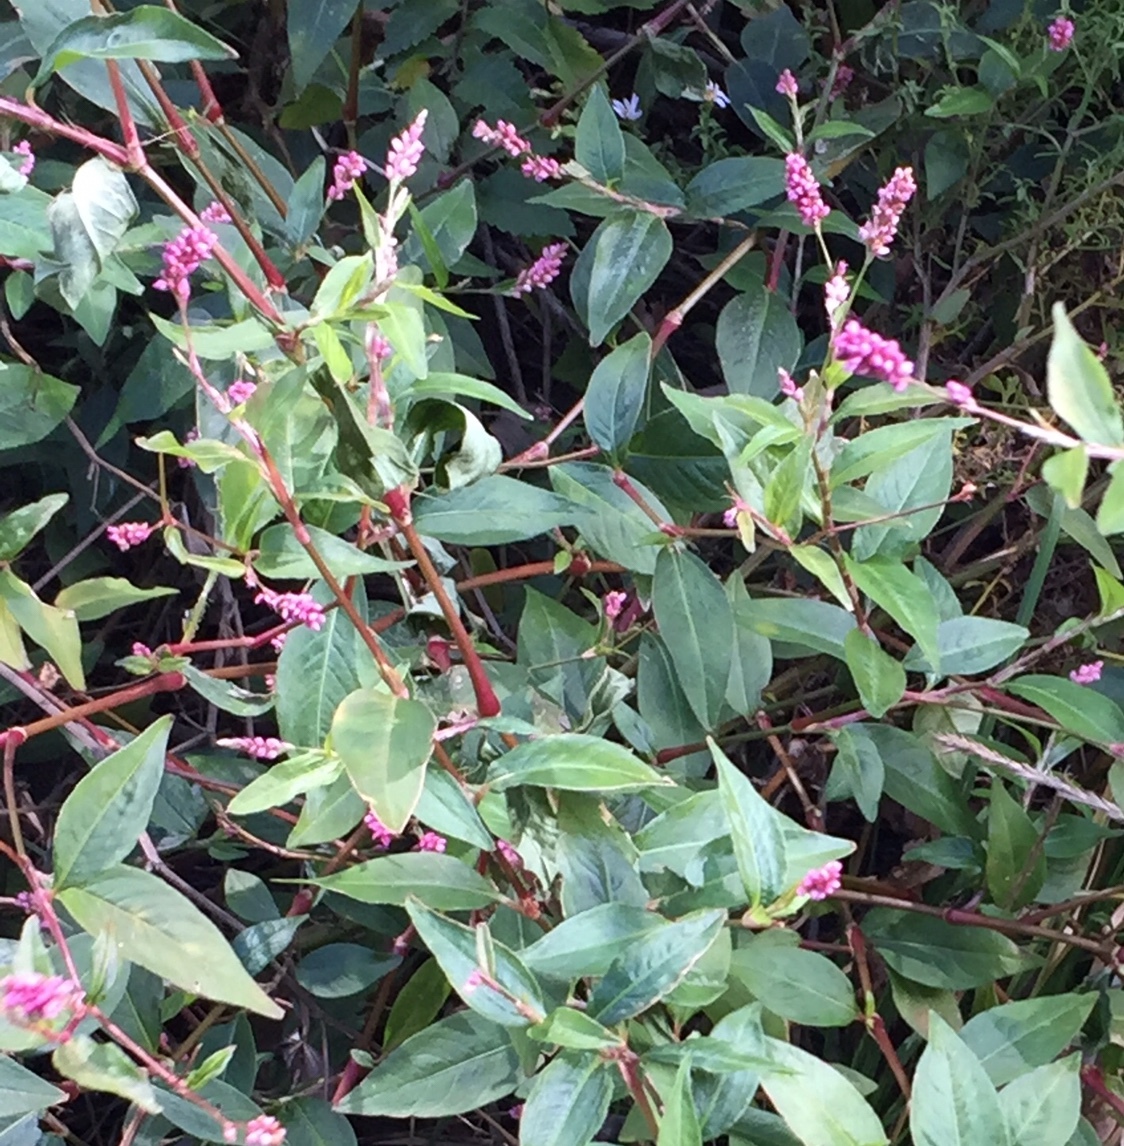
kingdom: Plantae
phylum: Tracheophyta
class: Magnoliopsida
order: Caryophyllales
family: Polygonaceae
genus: Persicaria
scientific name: Persicaria longiseta
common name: Bristly lady's-thumb
